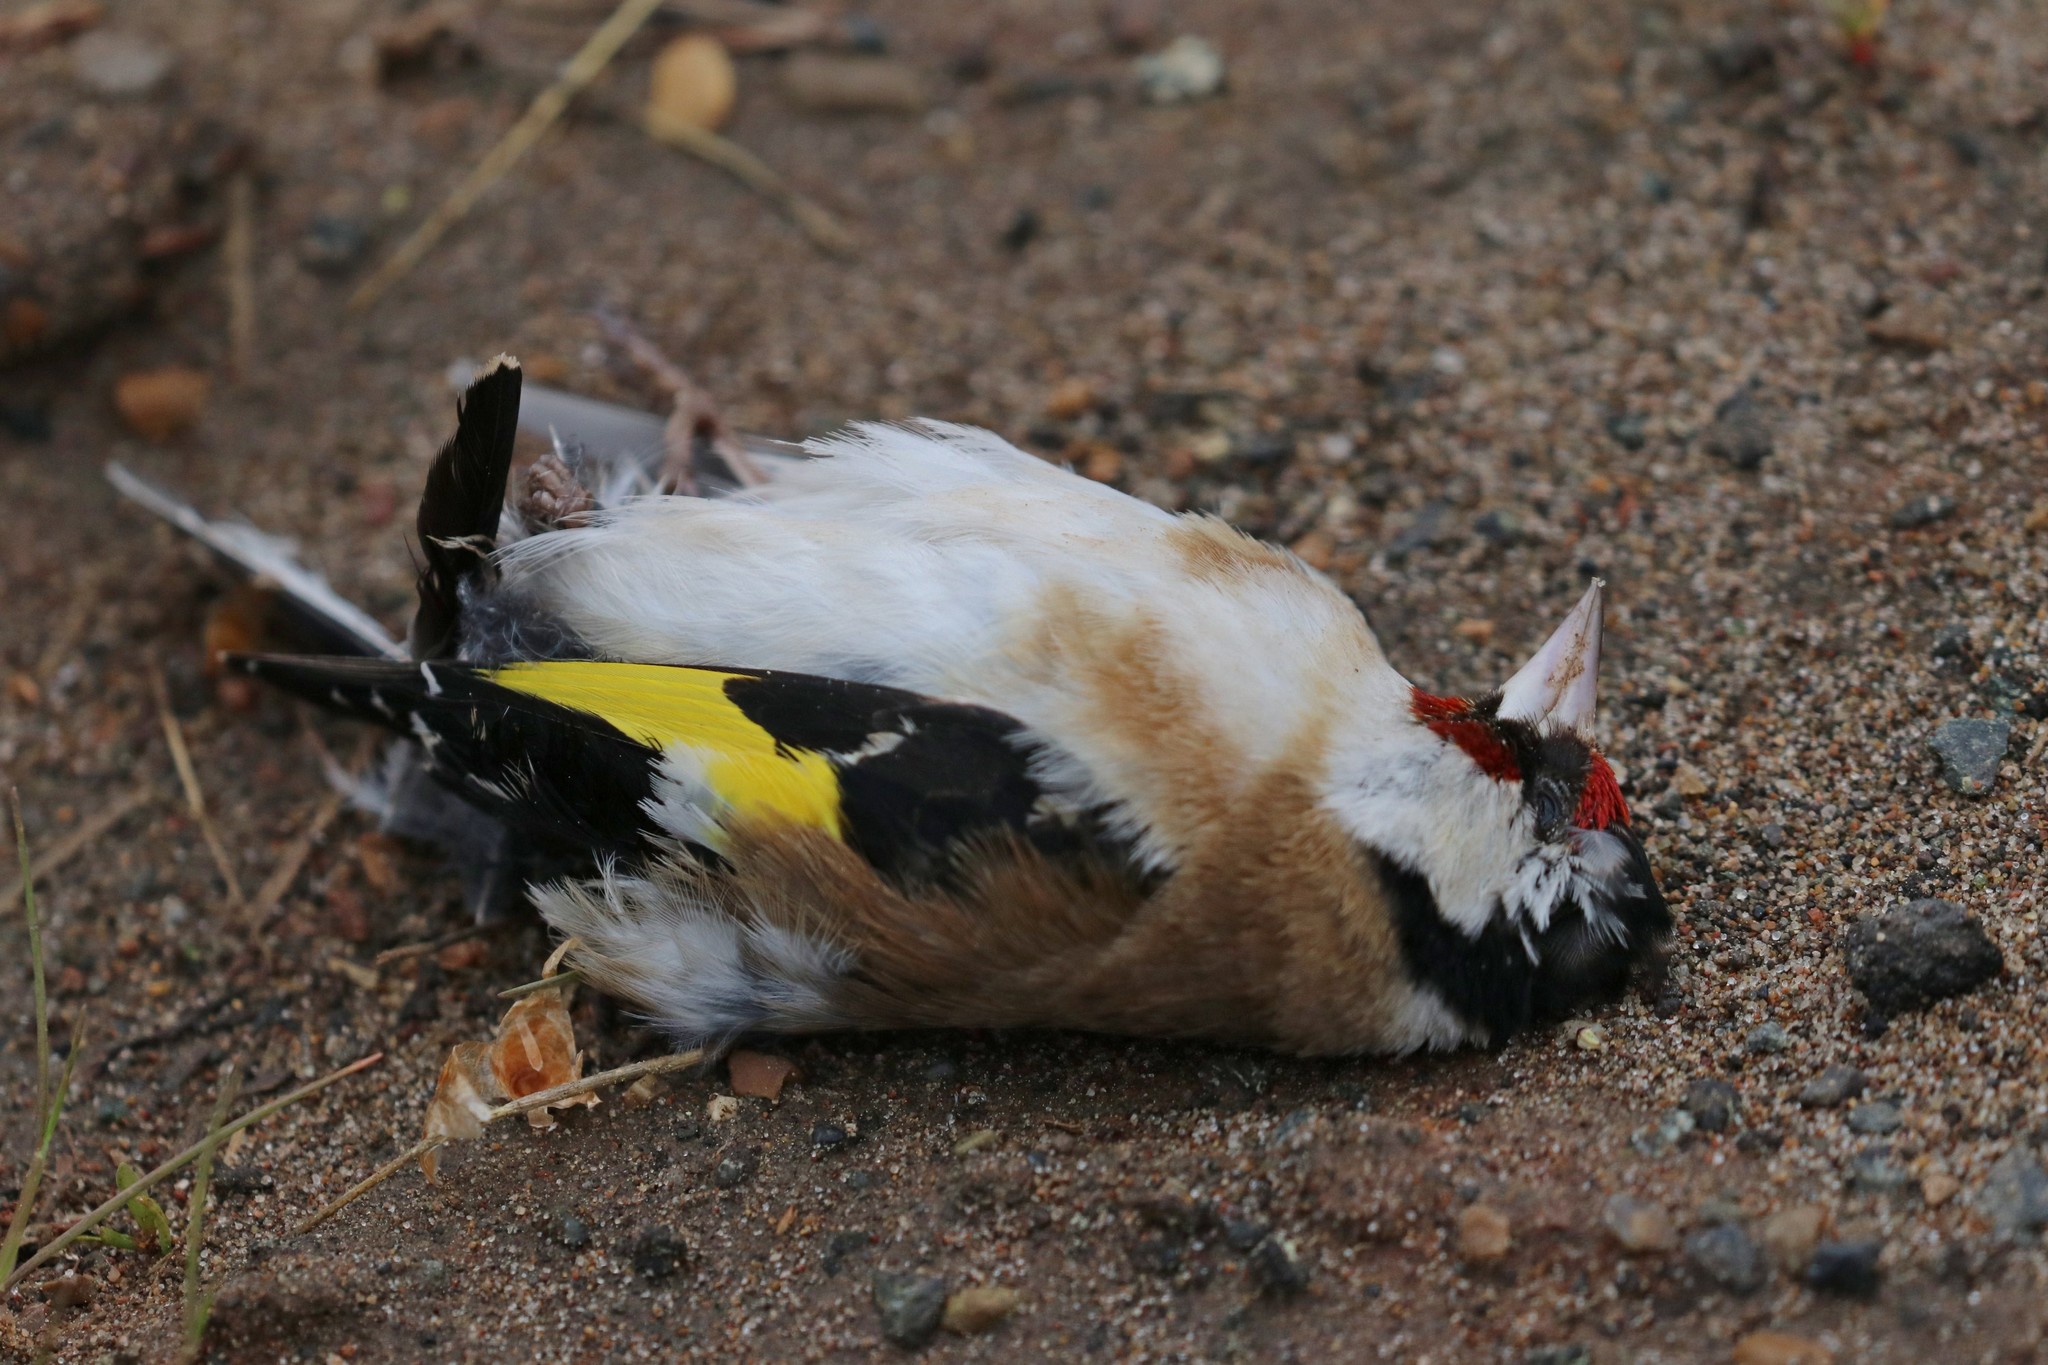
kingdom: Animalia
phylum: Chordata
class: Aves
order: Passeriformes
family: Fringillidae
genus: Carduelis
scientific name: Carduelis carduelis
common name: European goldfinch
